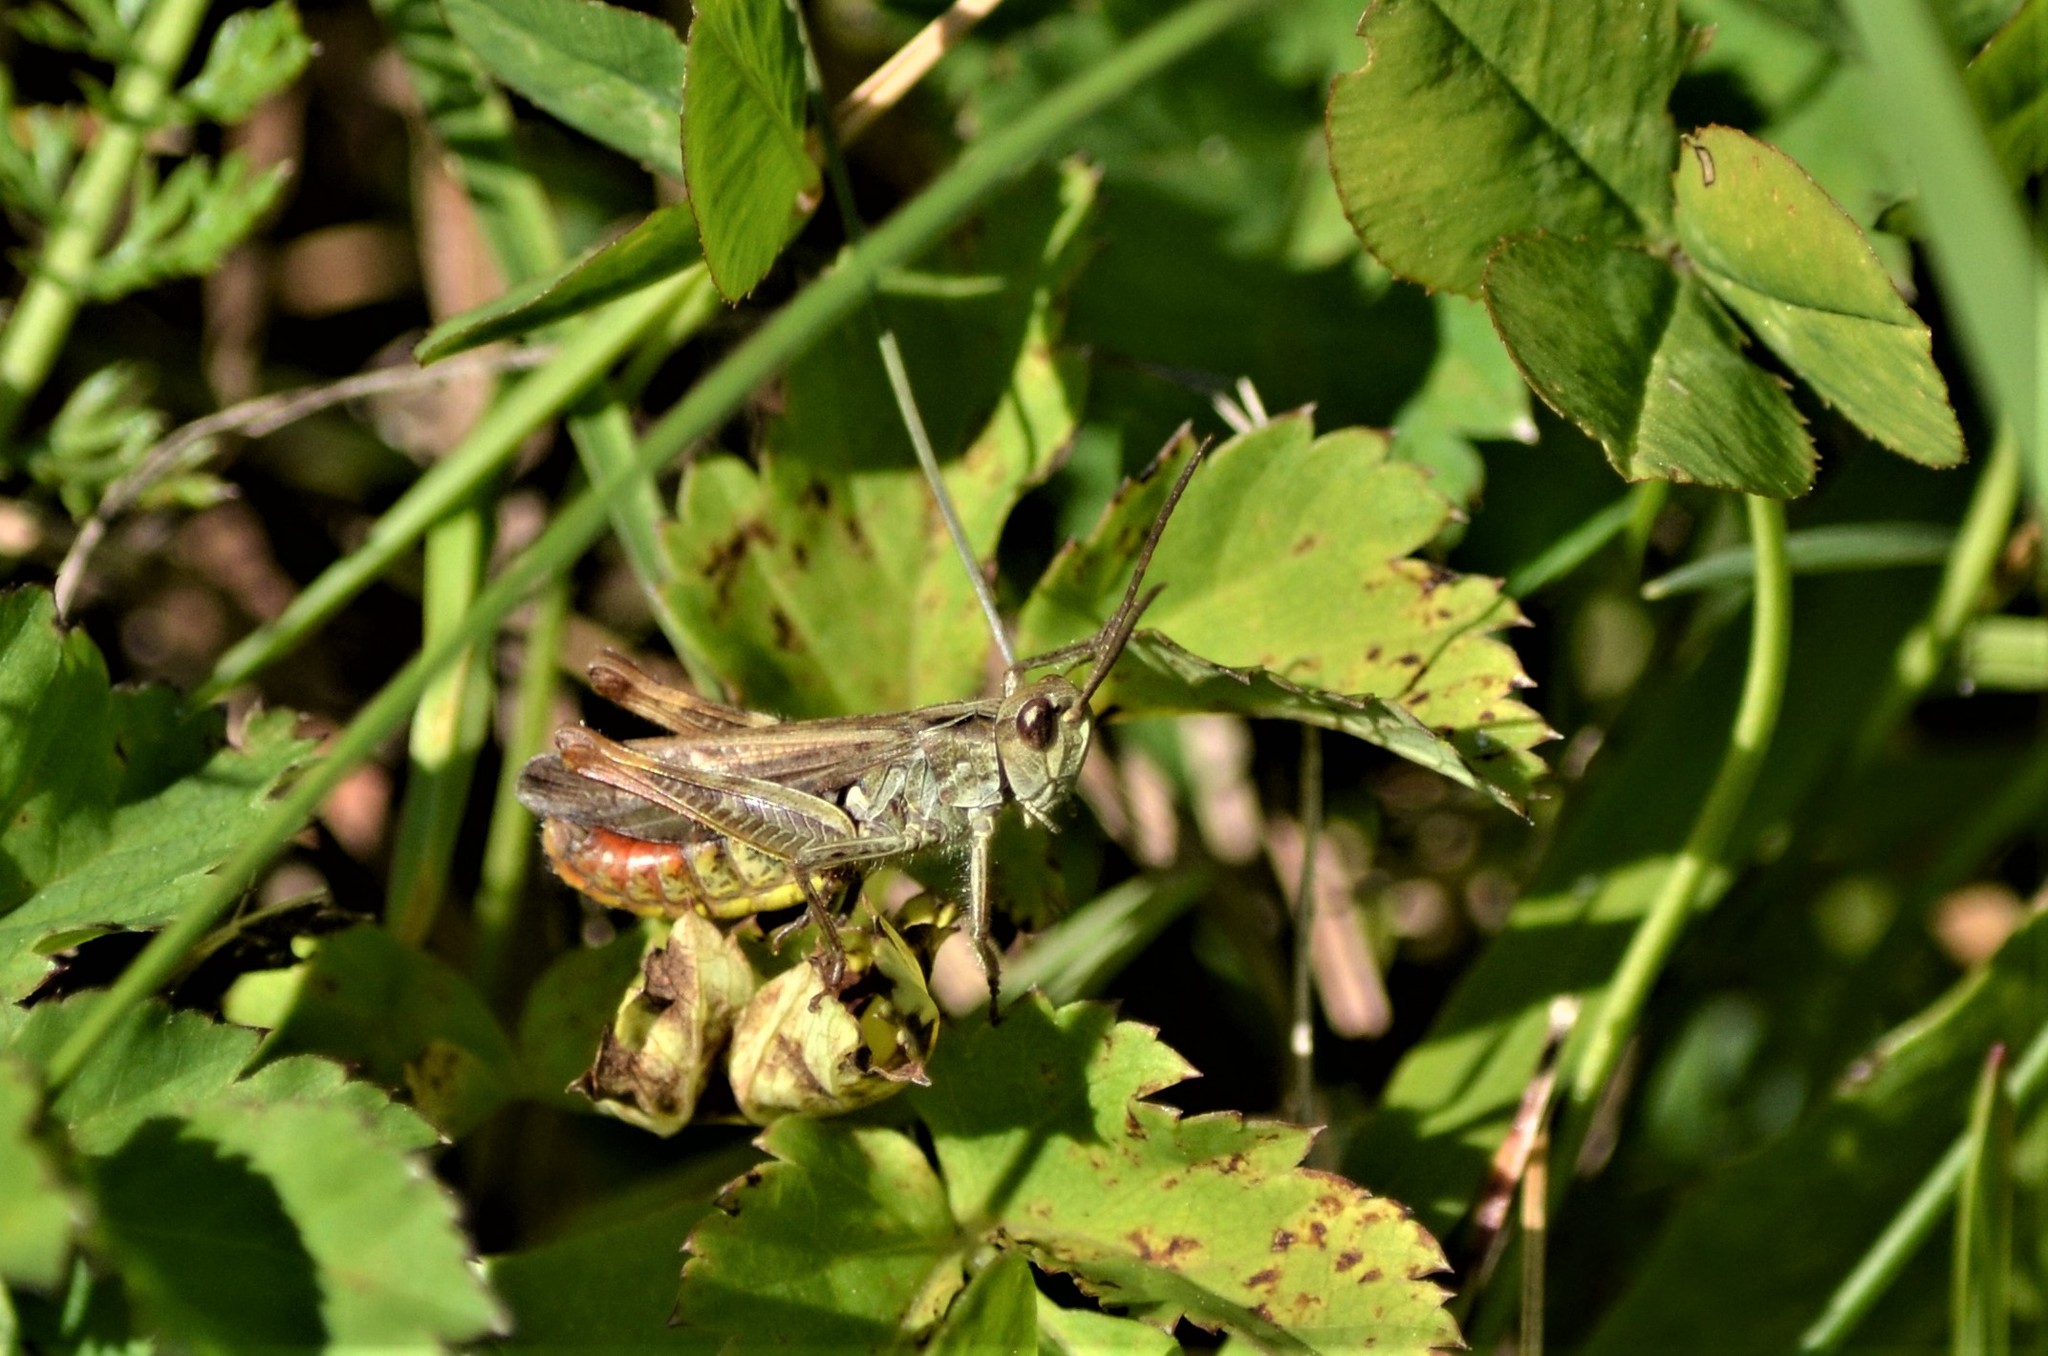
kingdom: Animalia
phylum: Arthropoda
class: Insecta
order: Orthoptera
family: Acrididae
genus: Gomphocerippus
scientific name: Gomphocerippus rufus
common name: Rufous grasshopper
